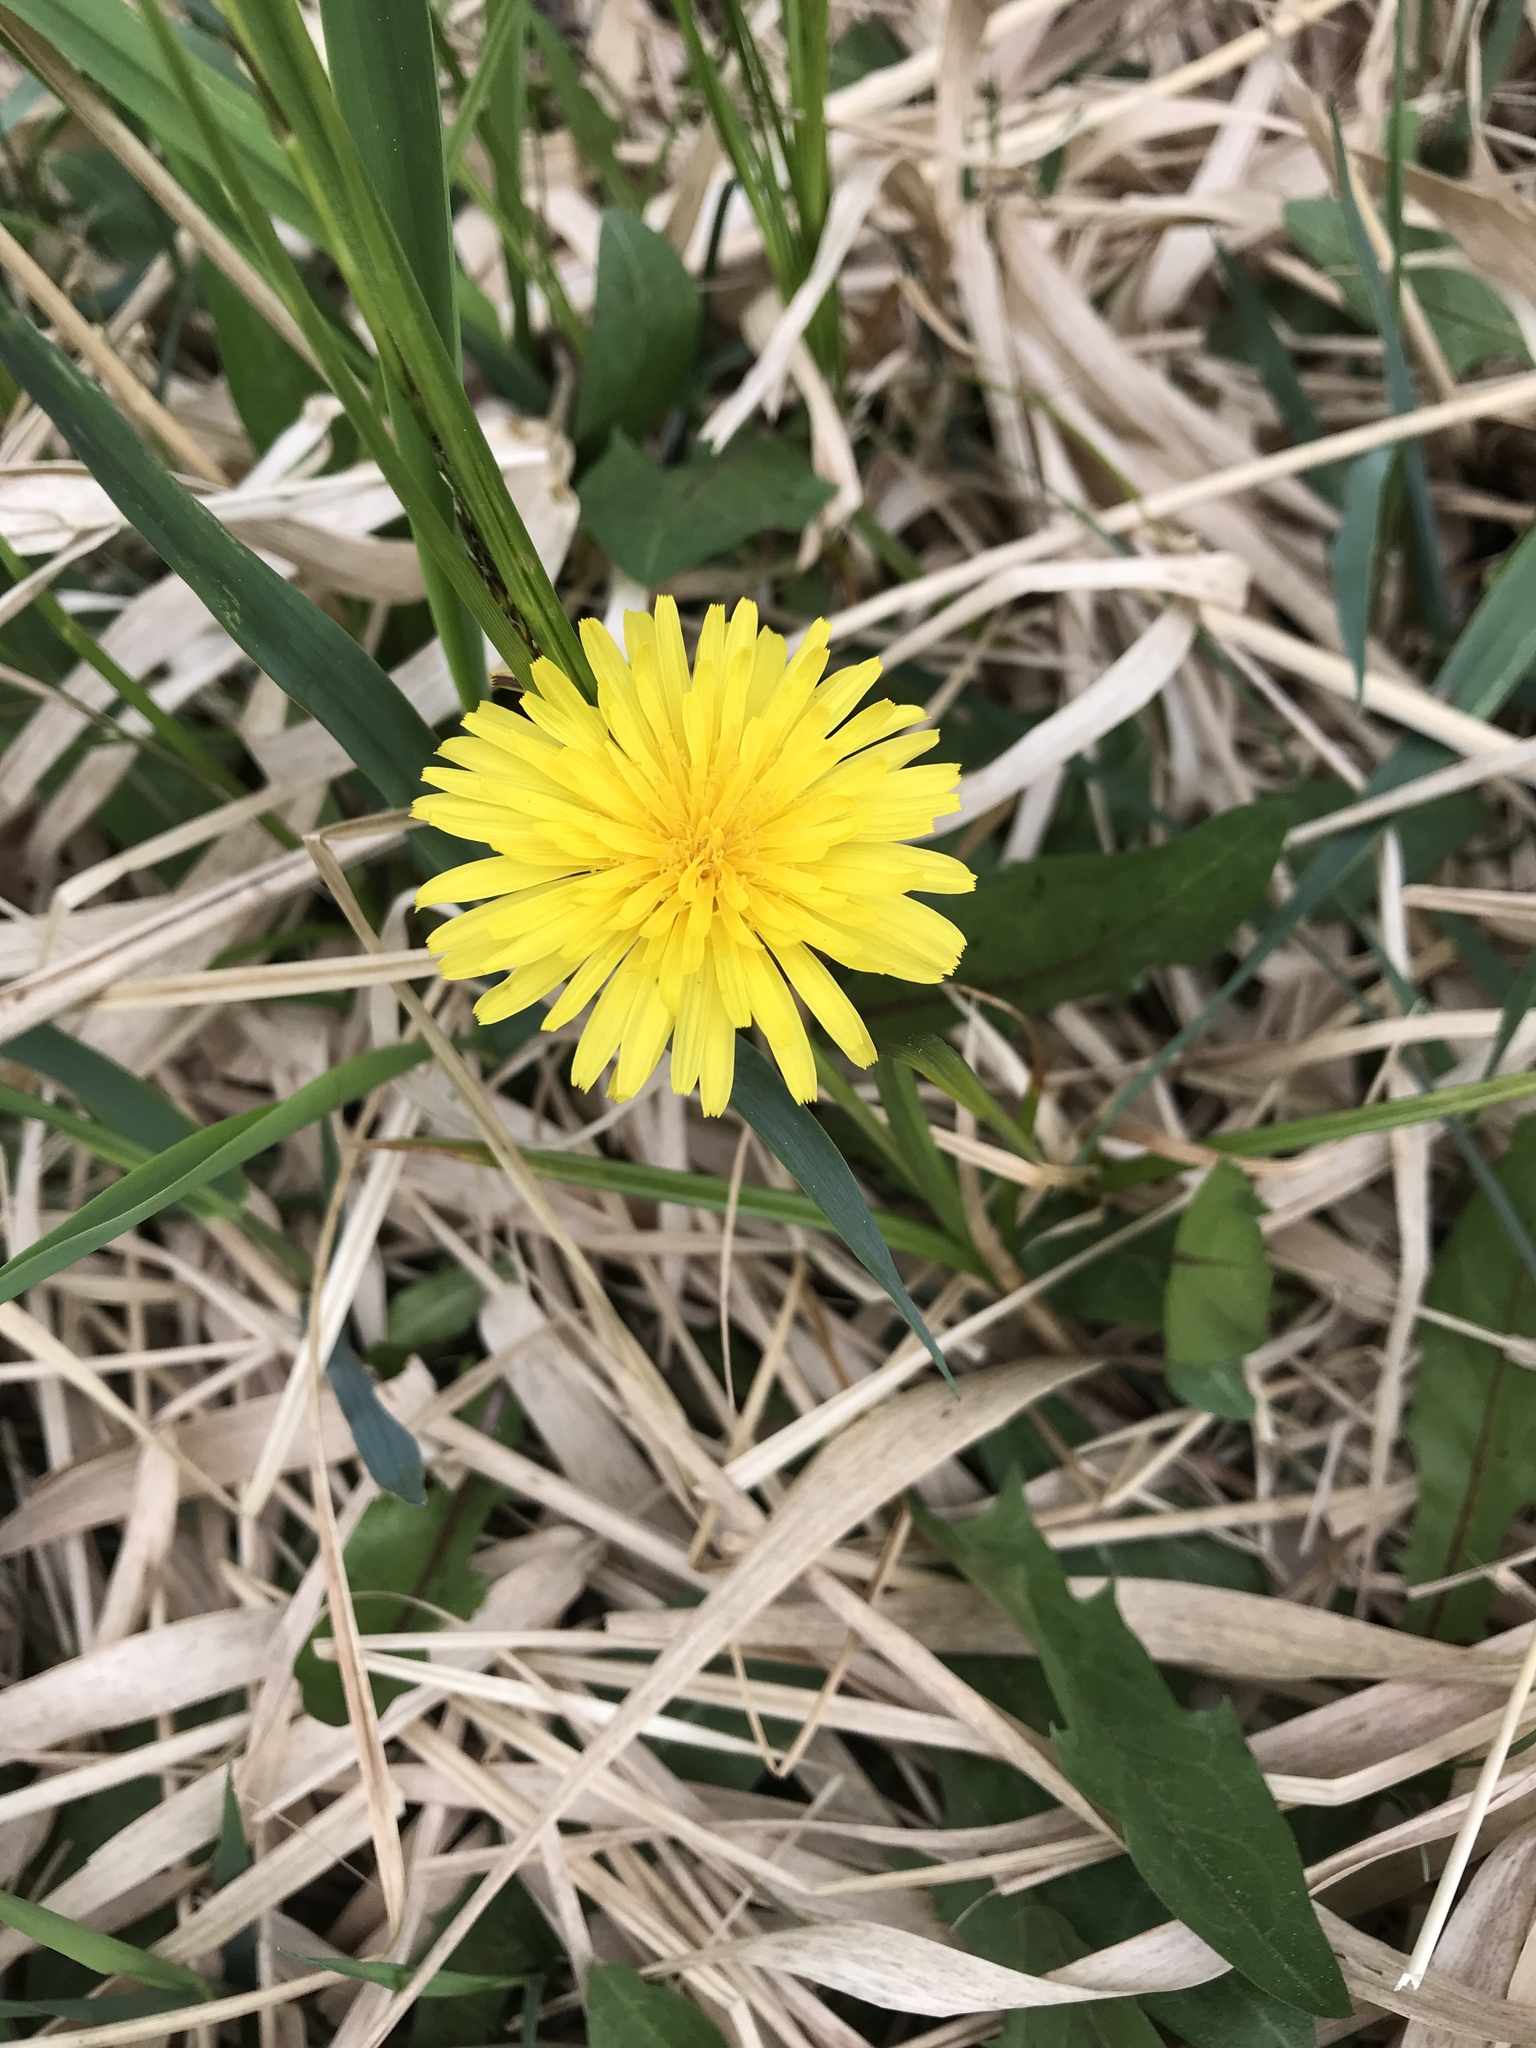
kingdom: Plantae
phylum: Tracheophyta
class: Magnoliopsida
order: Asterales
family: Asteraceae
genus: Taraxacum
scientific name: Taraxacum officinale
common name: Common dandelion
